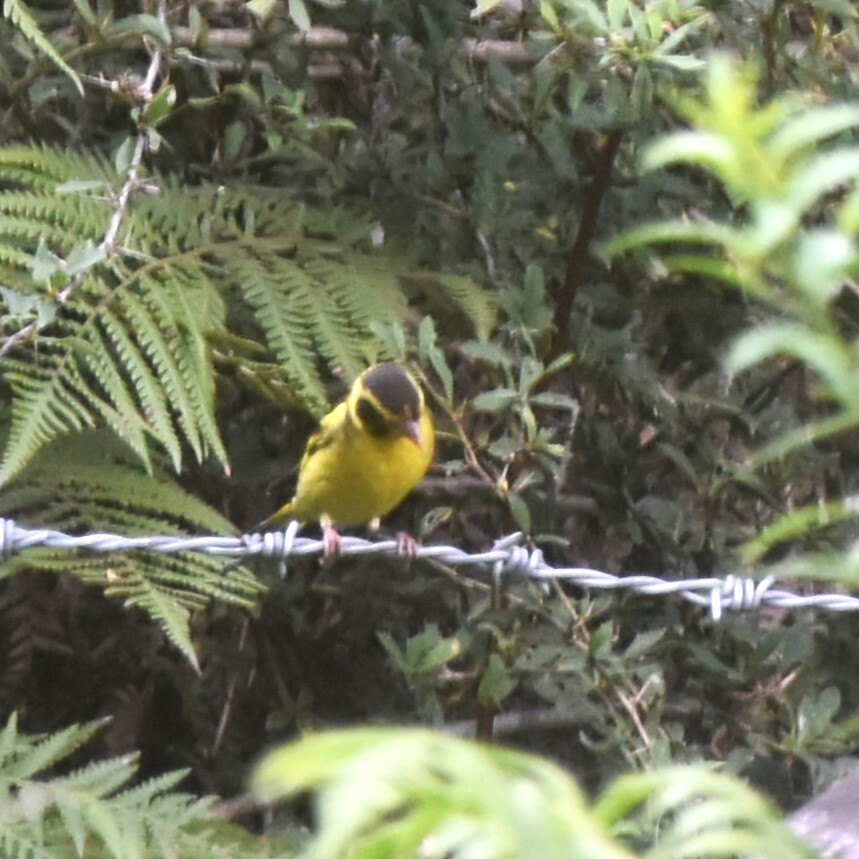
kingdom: Animalia
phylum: Chordata
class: Aves
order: Passeriformes
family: Fringillidae
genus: Chloris
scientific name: Chloris spinoides
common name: Yellow-breasted greenfinch
